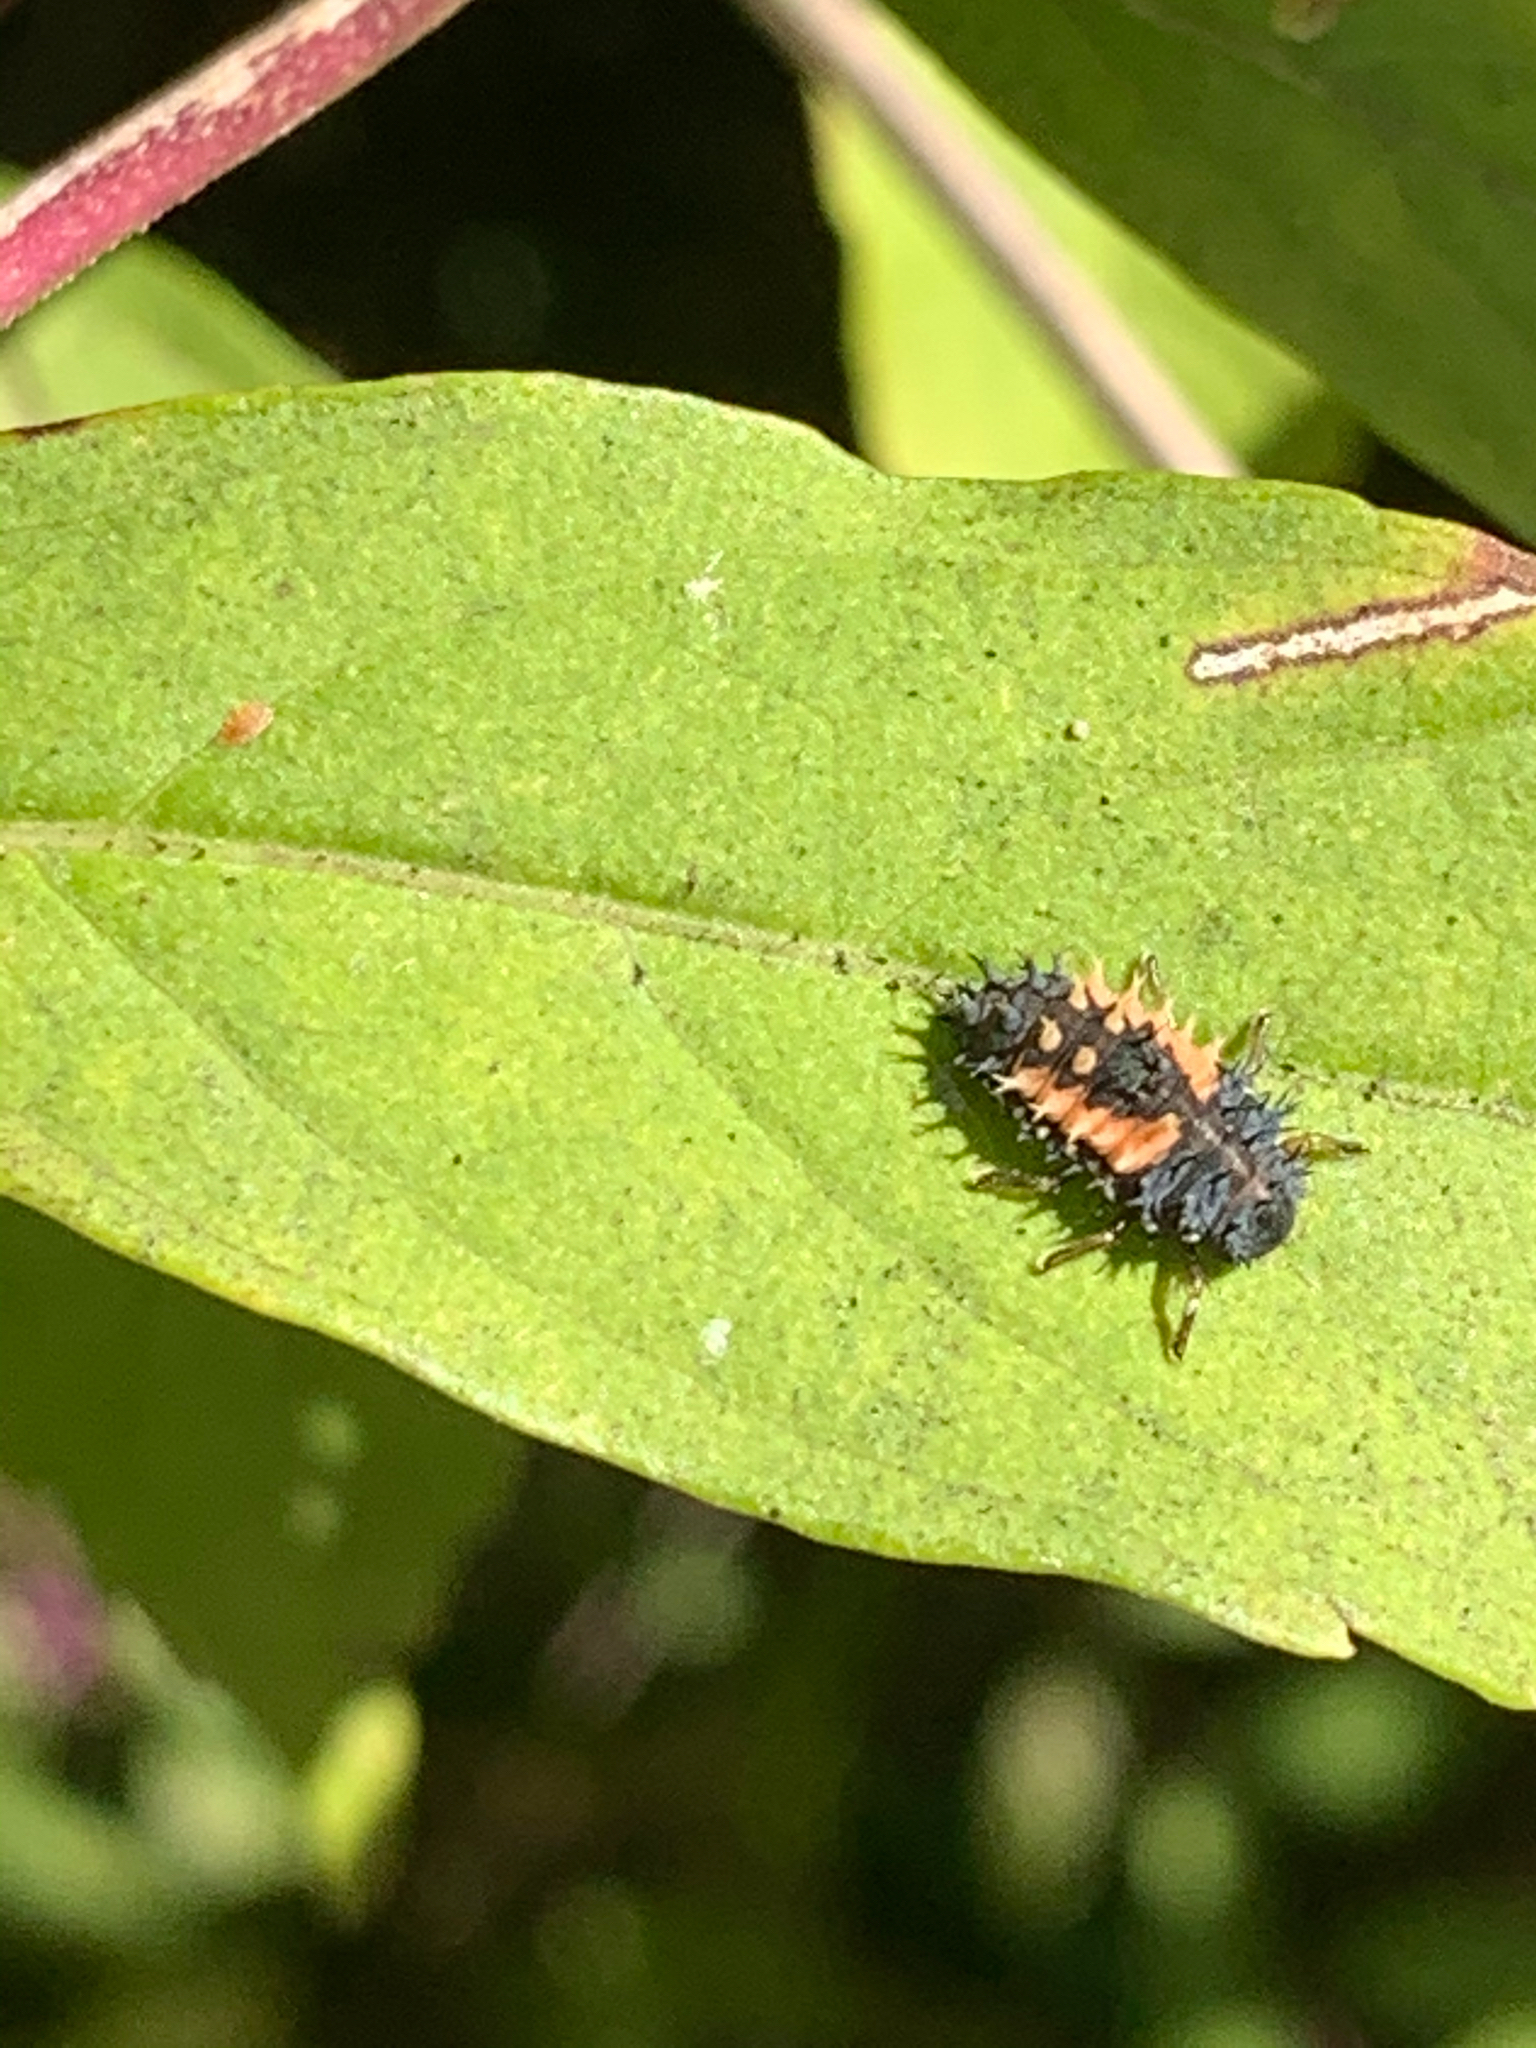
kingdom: Animalia
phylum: Arthropoda
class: Insecta
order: Coleoptera
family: Coccinellidae
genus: Harmonia
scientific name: Harmonia axyridis
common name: Harlequin ladybird
